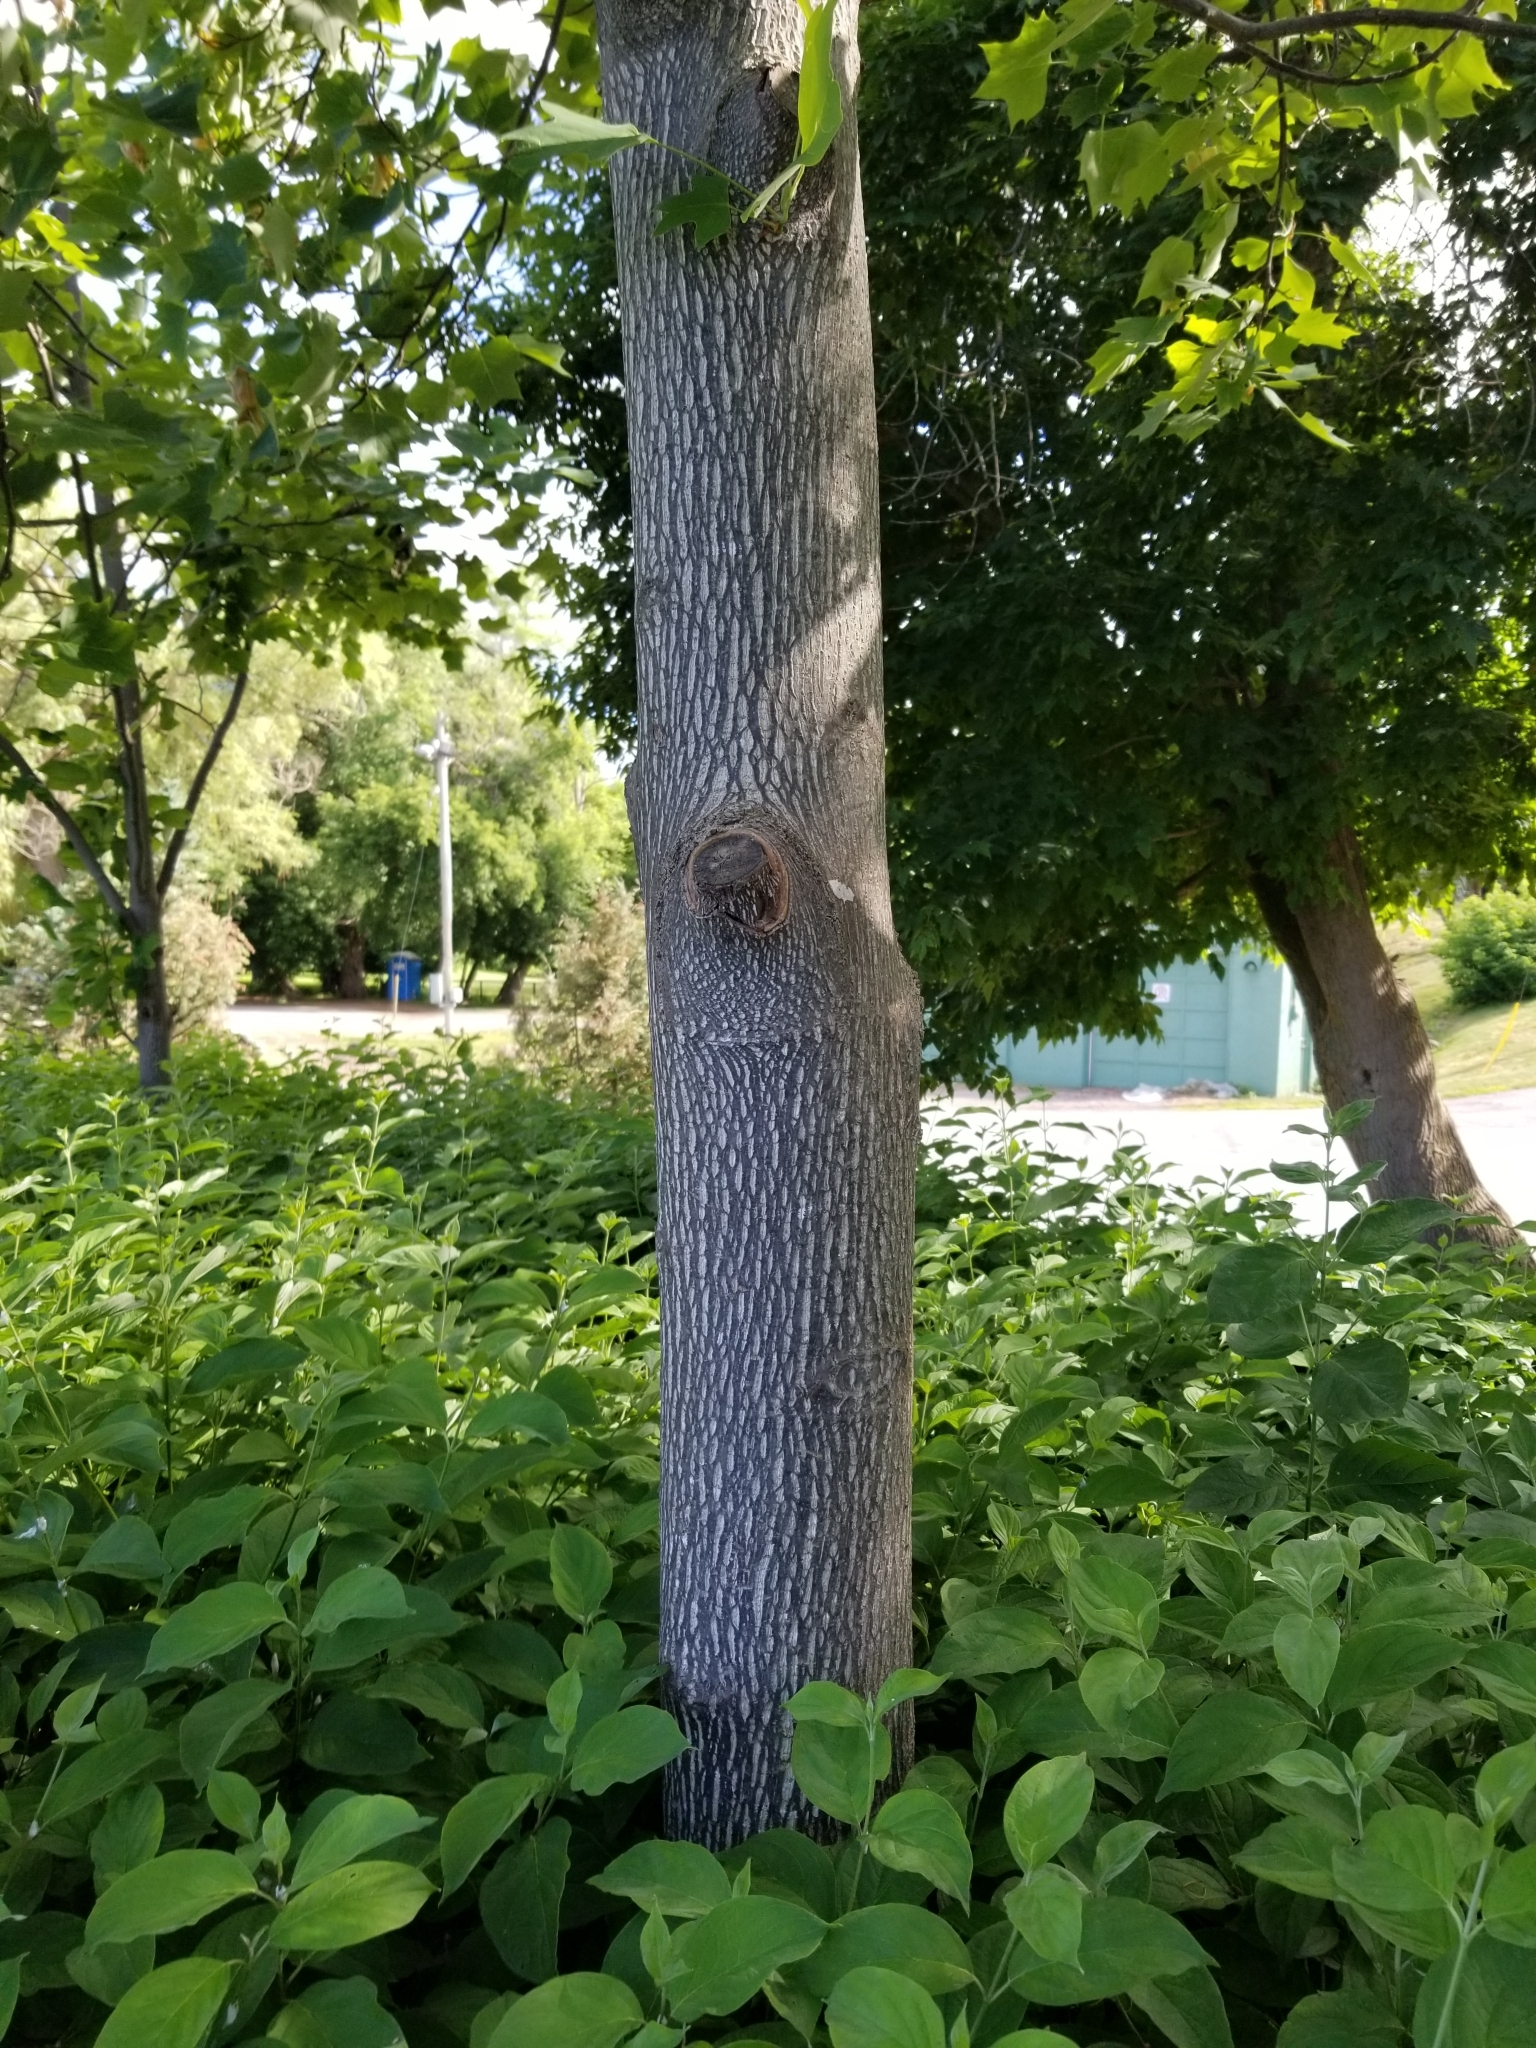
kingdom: Plantae
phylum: Tracheophyta
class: Magnoliopsida
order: Magnoliales
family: Magnoliaceae
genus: Liriodendron
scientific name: Liriodendron tulipifera
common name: Tulip tree
